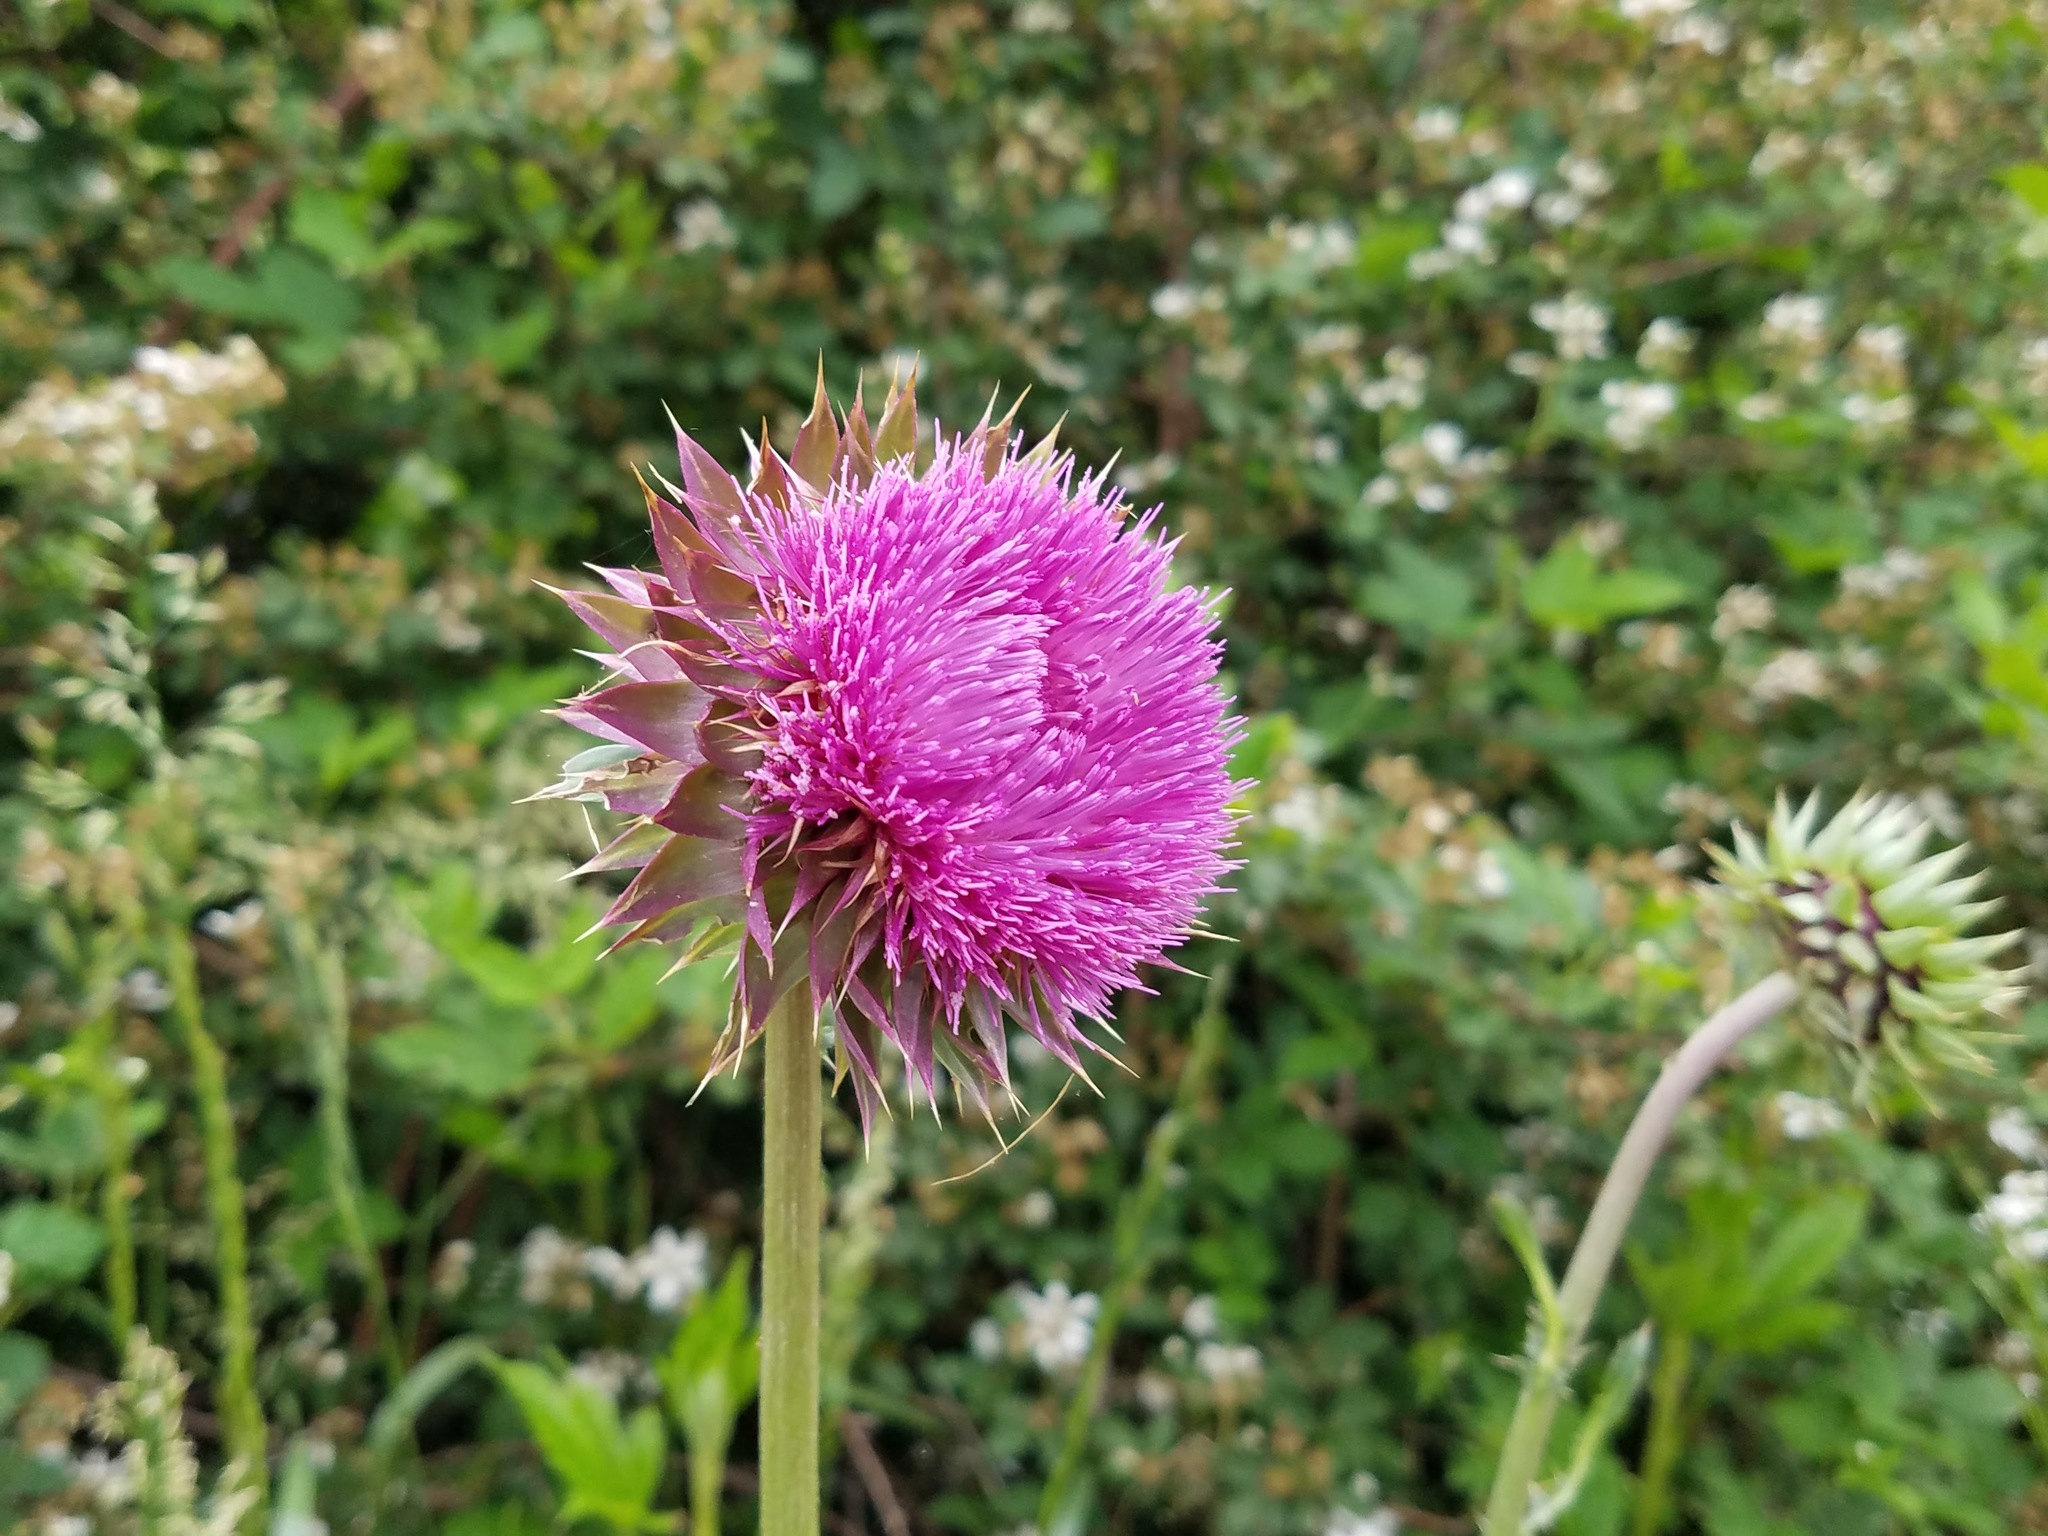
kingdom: Plantae
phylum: Tracheophyta
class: Magnoliopsida
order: Asterales
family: Asteraceae
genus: Carduus
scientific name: Carduus nutans
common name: Musk thistle
